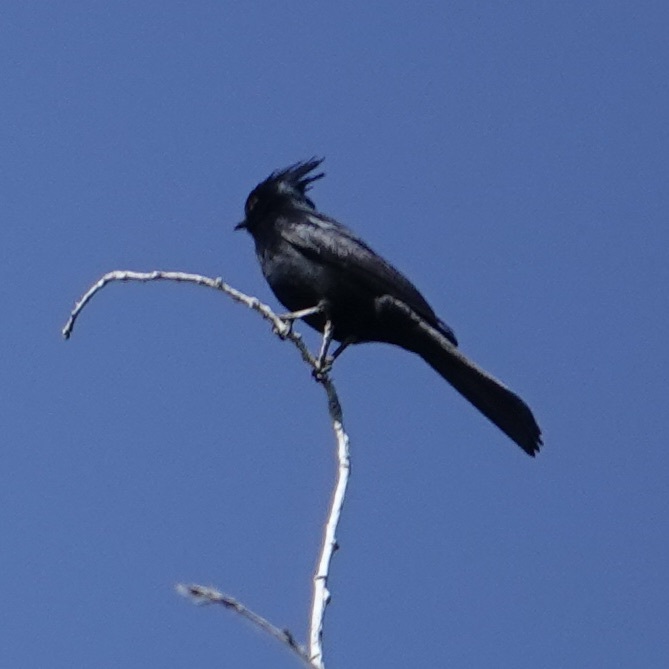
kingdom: Animalia
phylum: Chordata
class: Aves
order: Passeriformes
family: Ptilogonatidae
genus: Phainopepla
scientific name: Phainopepla nitens
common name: Phainopepla
